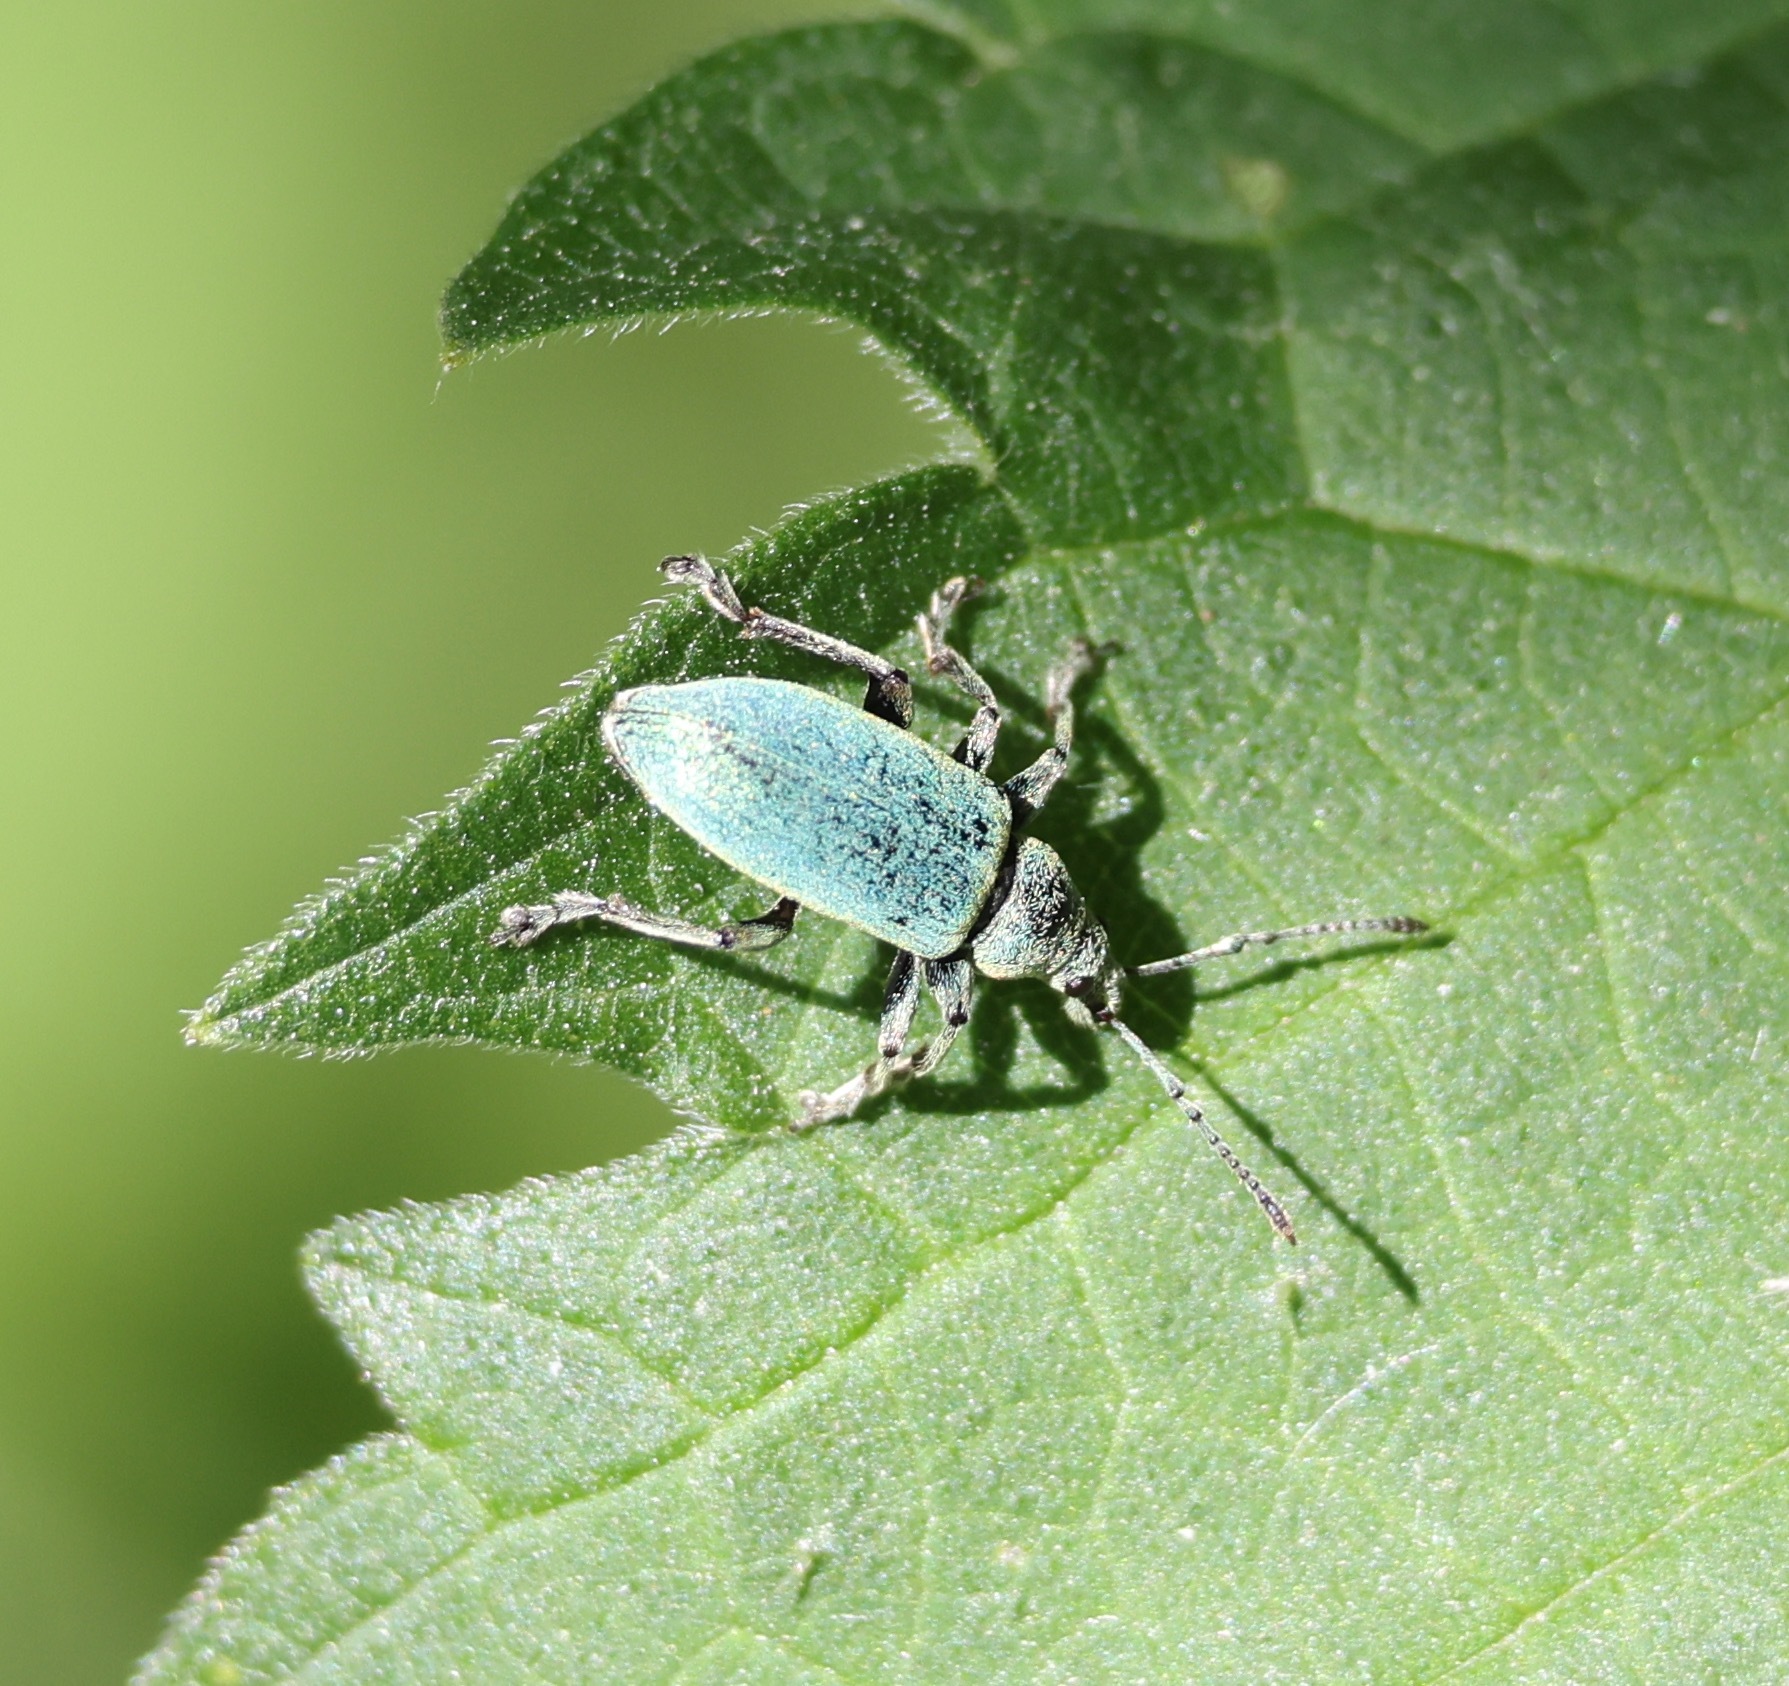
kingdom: Animalia
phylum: Arthropoda
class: Insecta
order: Coleoptera
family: Curculionidae
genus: Phyllobius
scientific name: Phyllobius pomaceus
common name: Green nettle weevil
